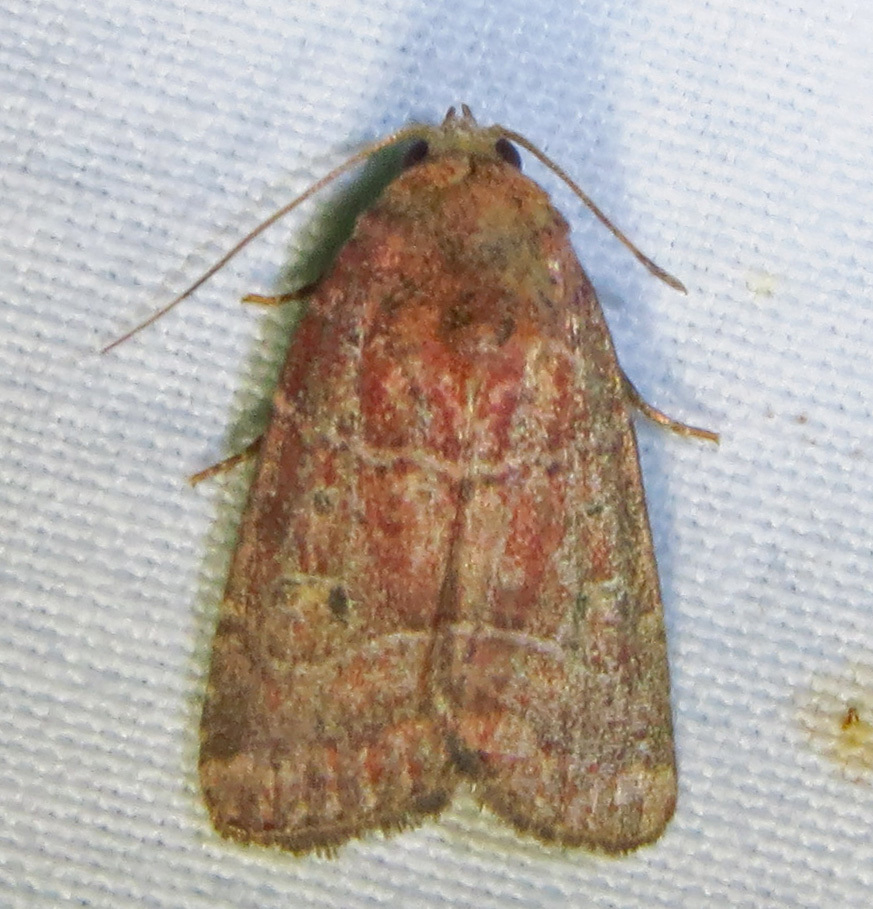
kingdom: Animalia
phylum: Arthropoda
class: Insecta
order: Lepidoptera
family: Noctuidae
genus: Elaphria
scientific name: Elaphria grata
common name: Grateful midget moth
